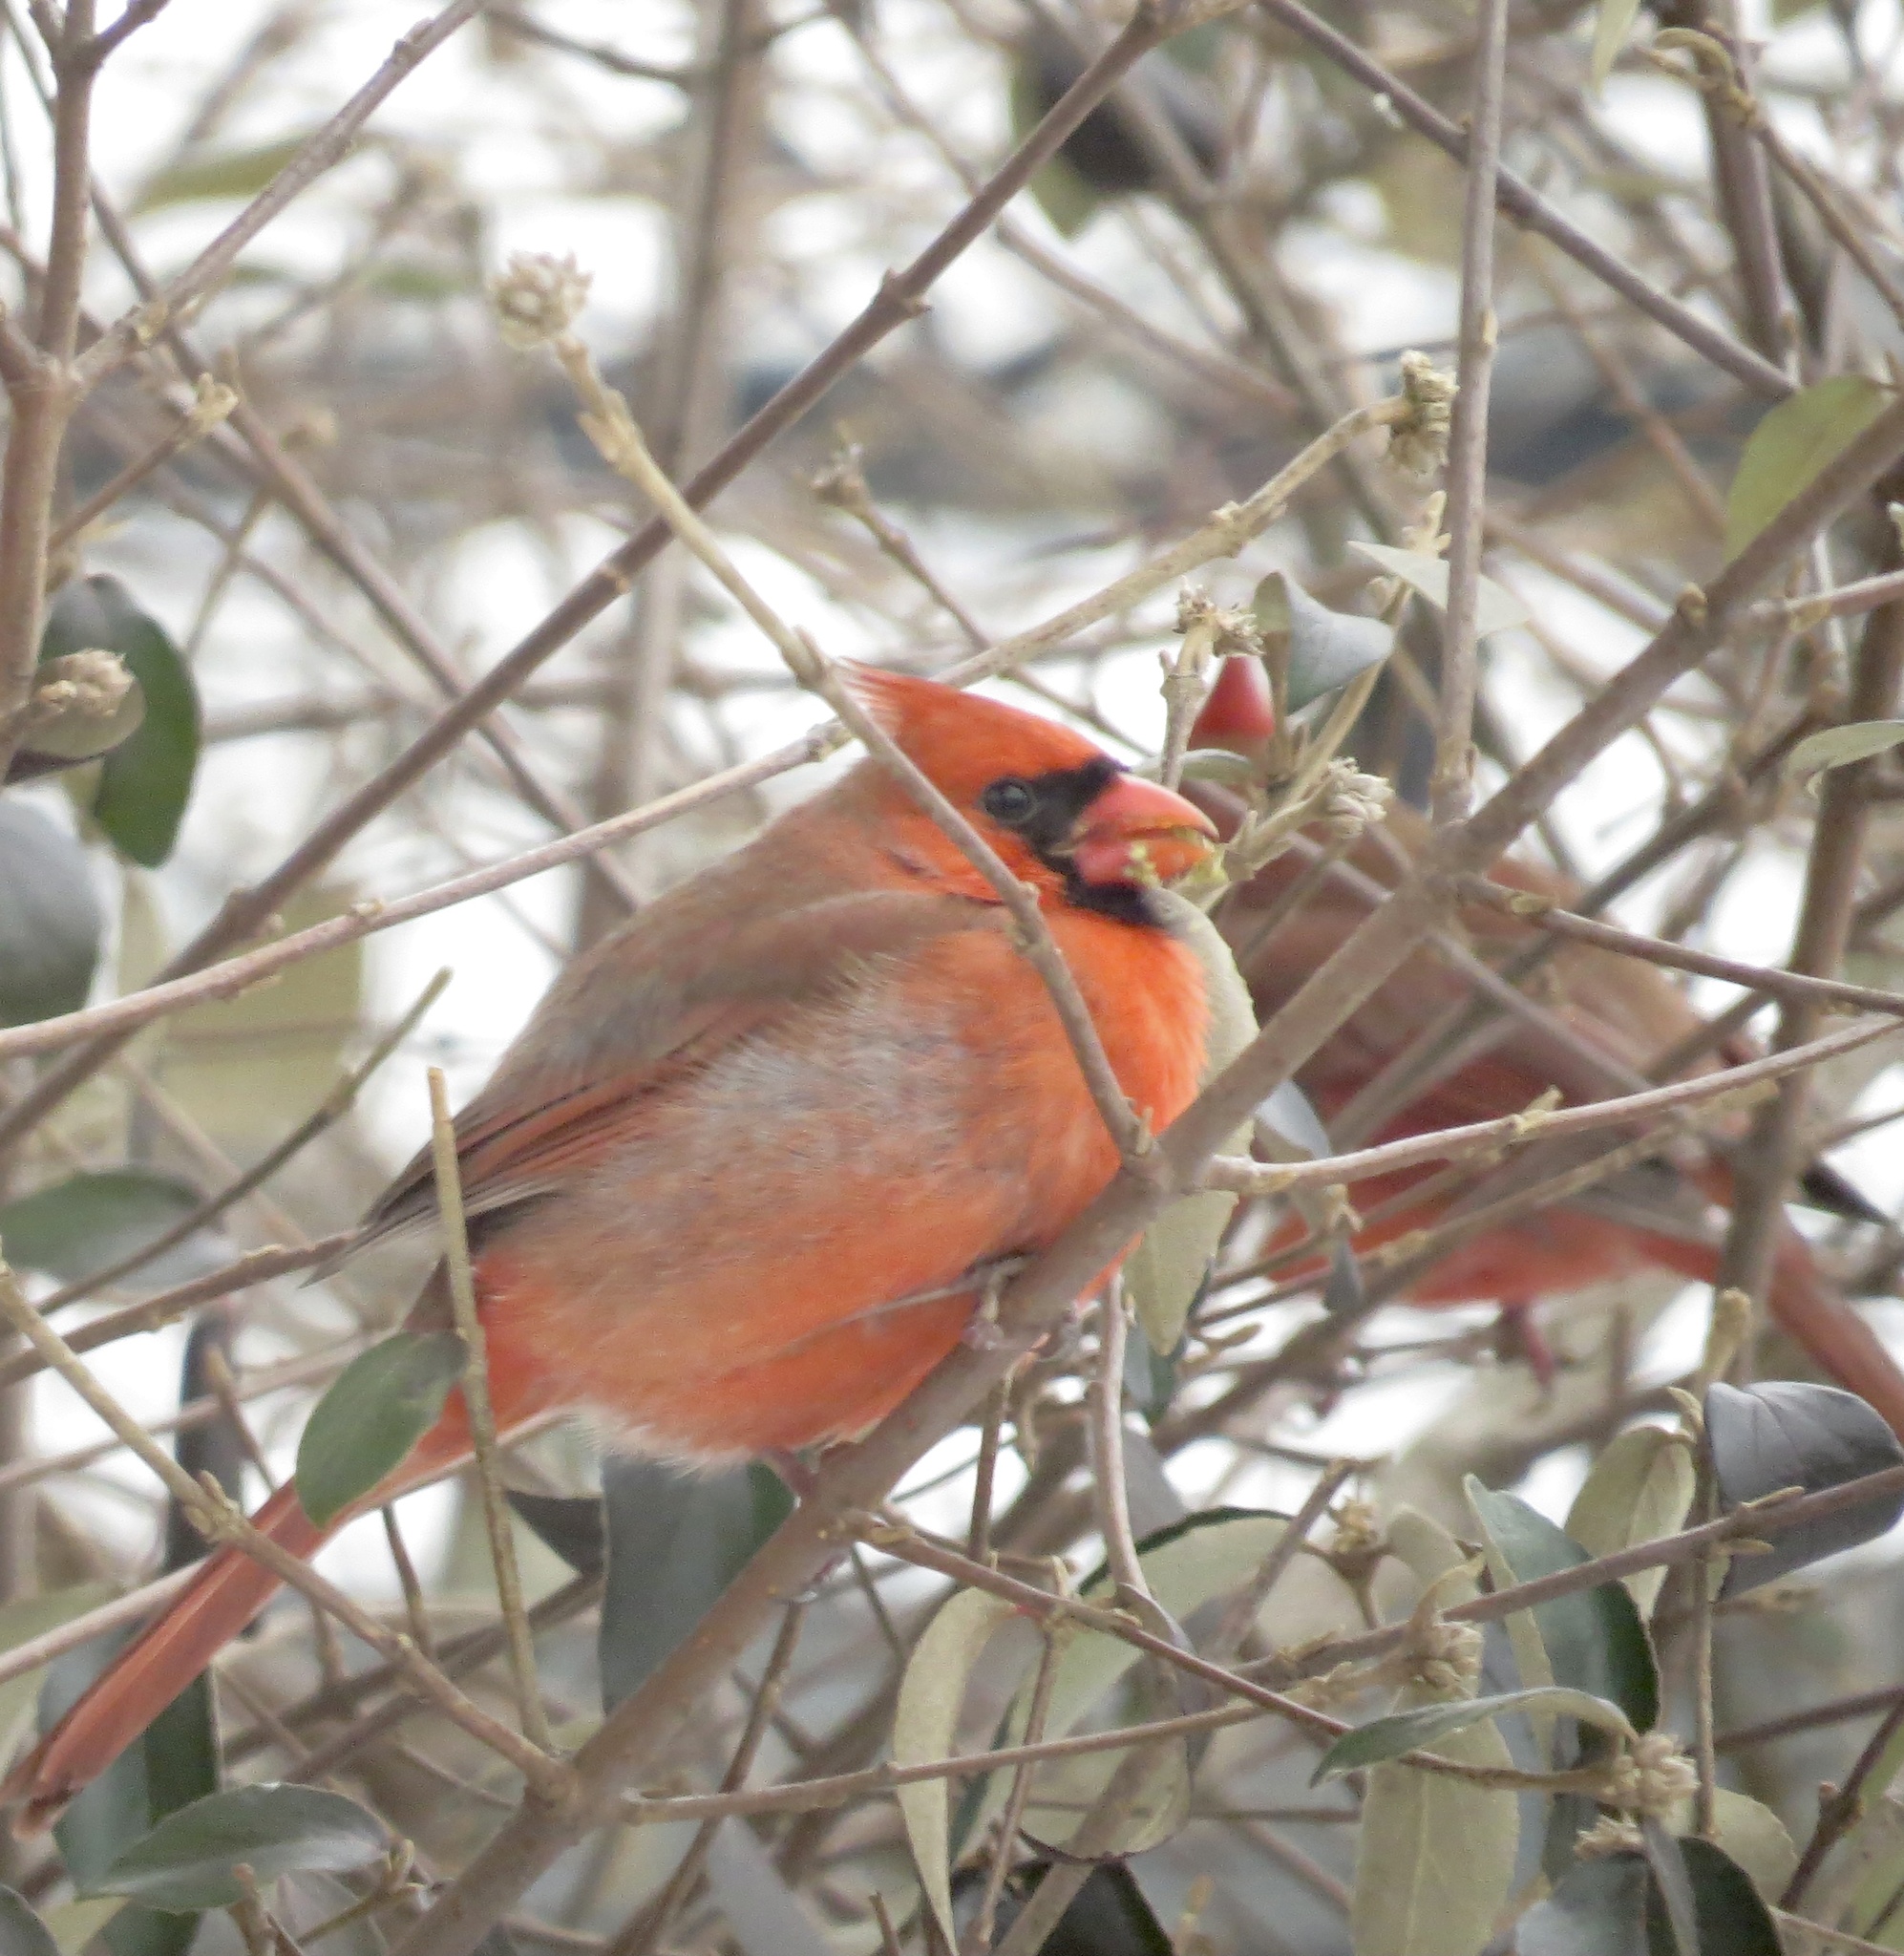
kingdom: Animalia
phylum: Chordata
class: Aves
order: Passeriformes
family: Cardinalidae
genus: Cardinalis
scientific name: Cardinalis cardinalis
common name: Northern cardinal
